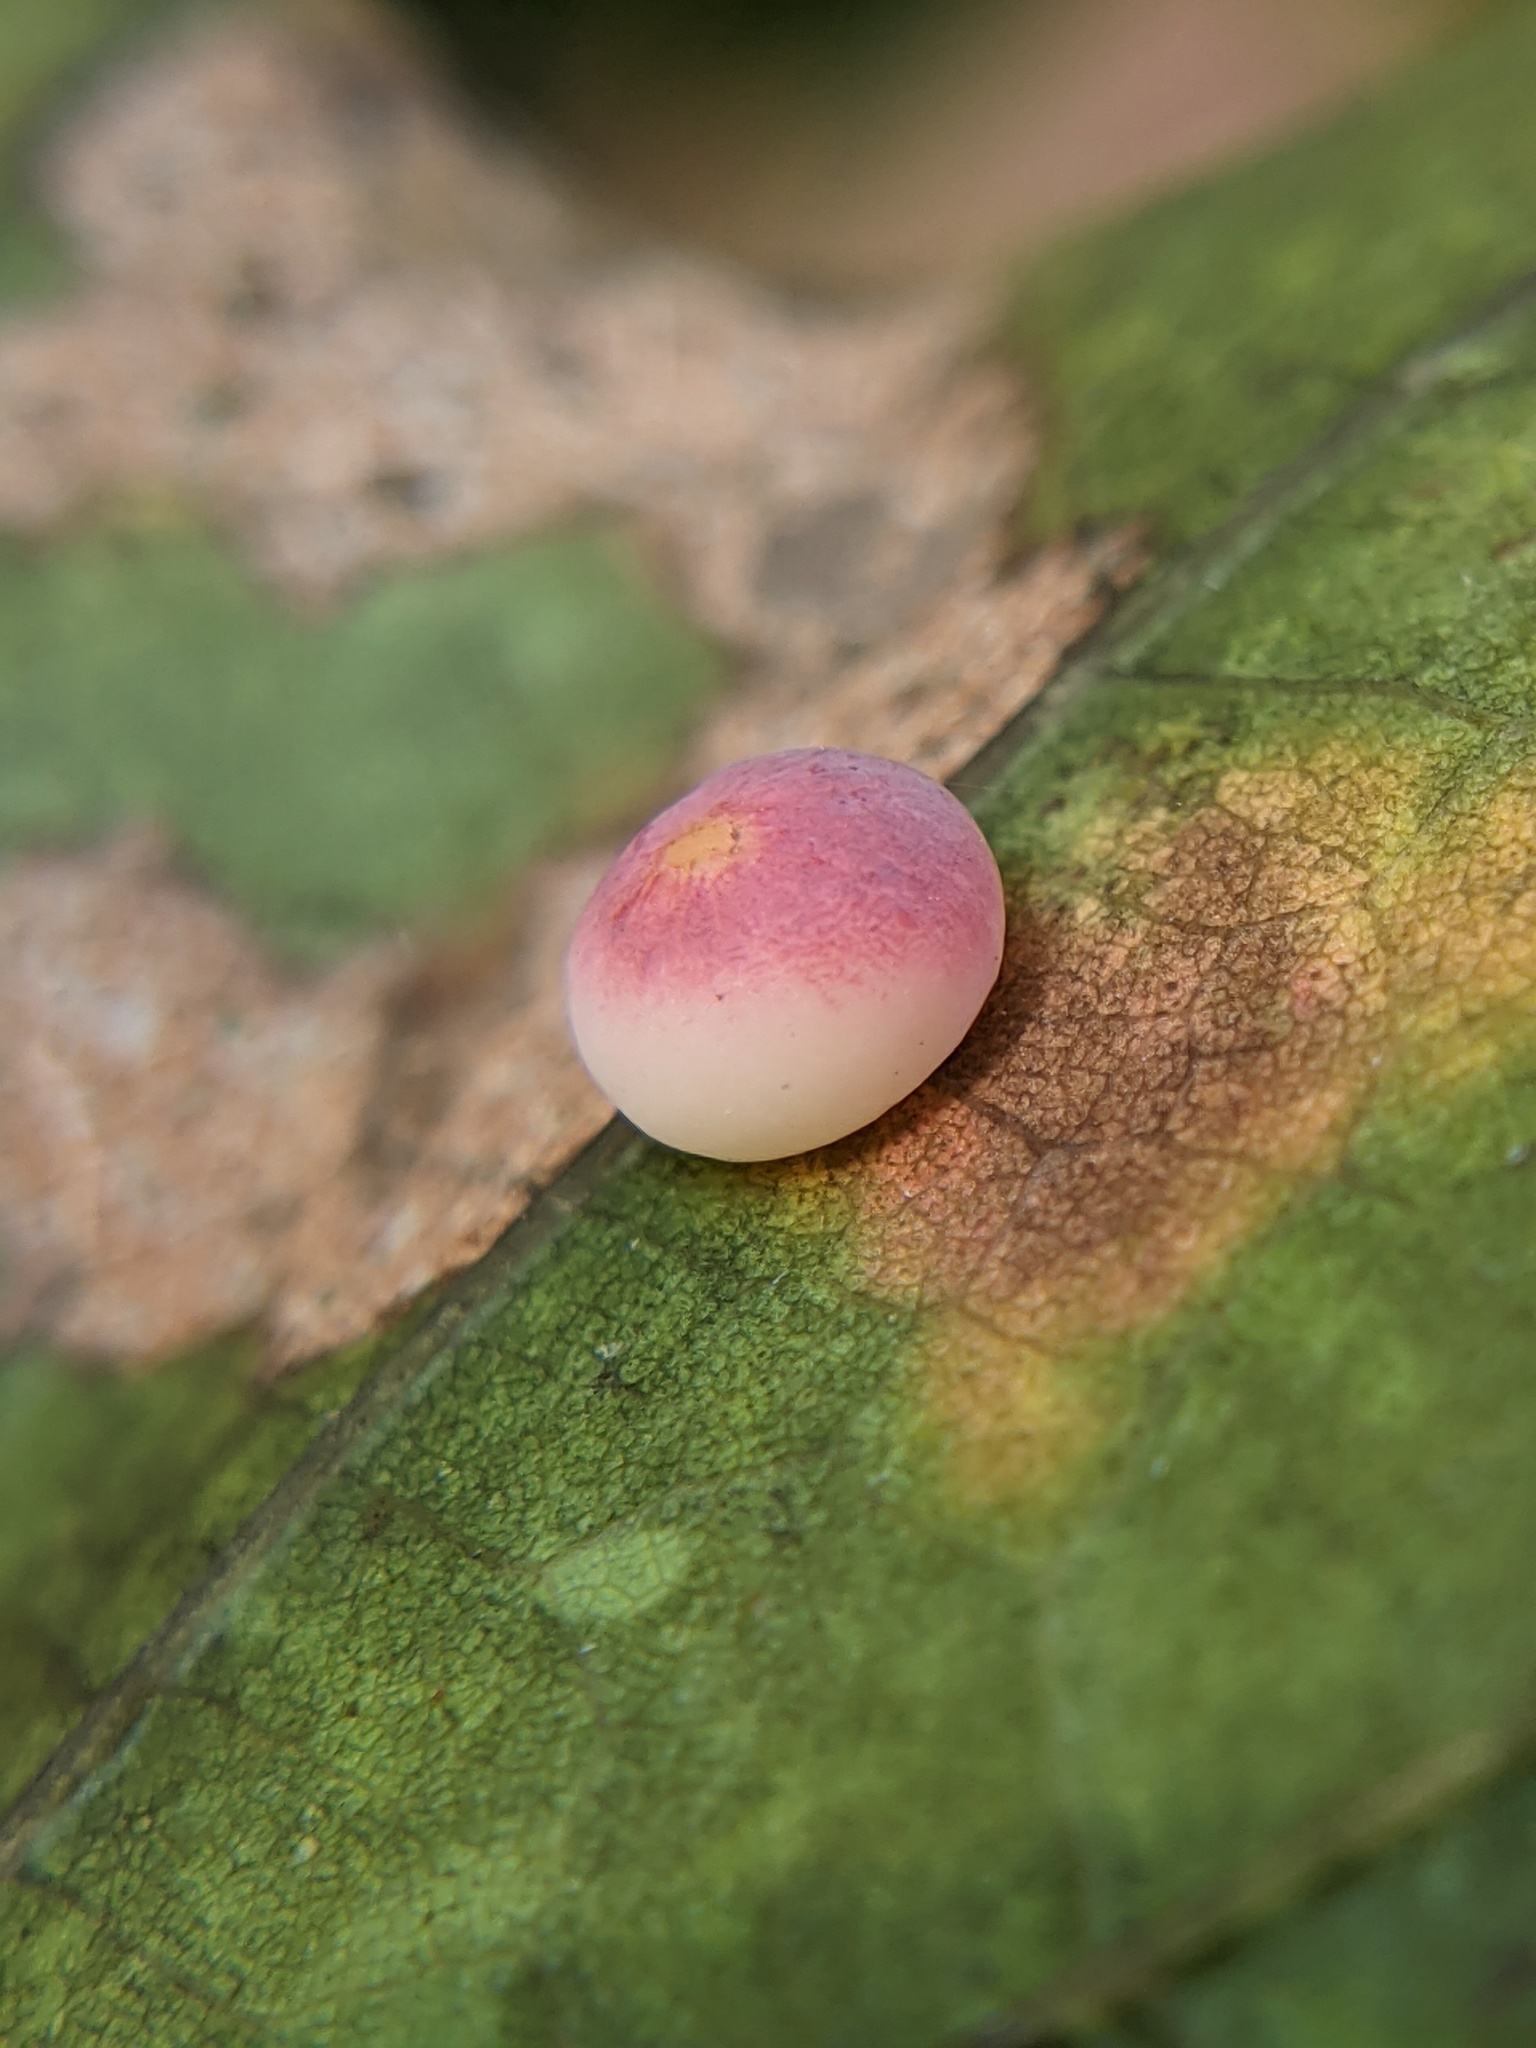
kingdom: Animalia
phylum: Arthropoda
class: Insecta
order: Hymenoptera
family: Cynipidae
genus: Zopheroteras
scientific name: Zopheroteras
